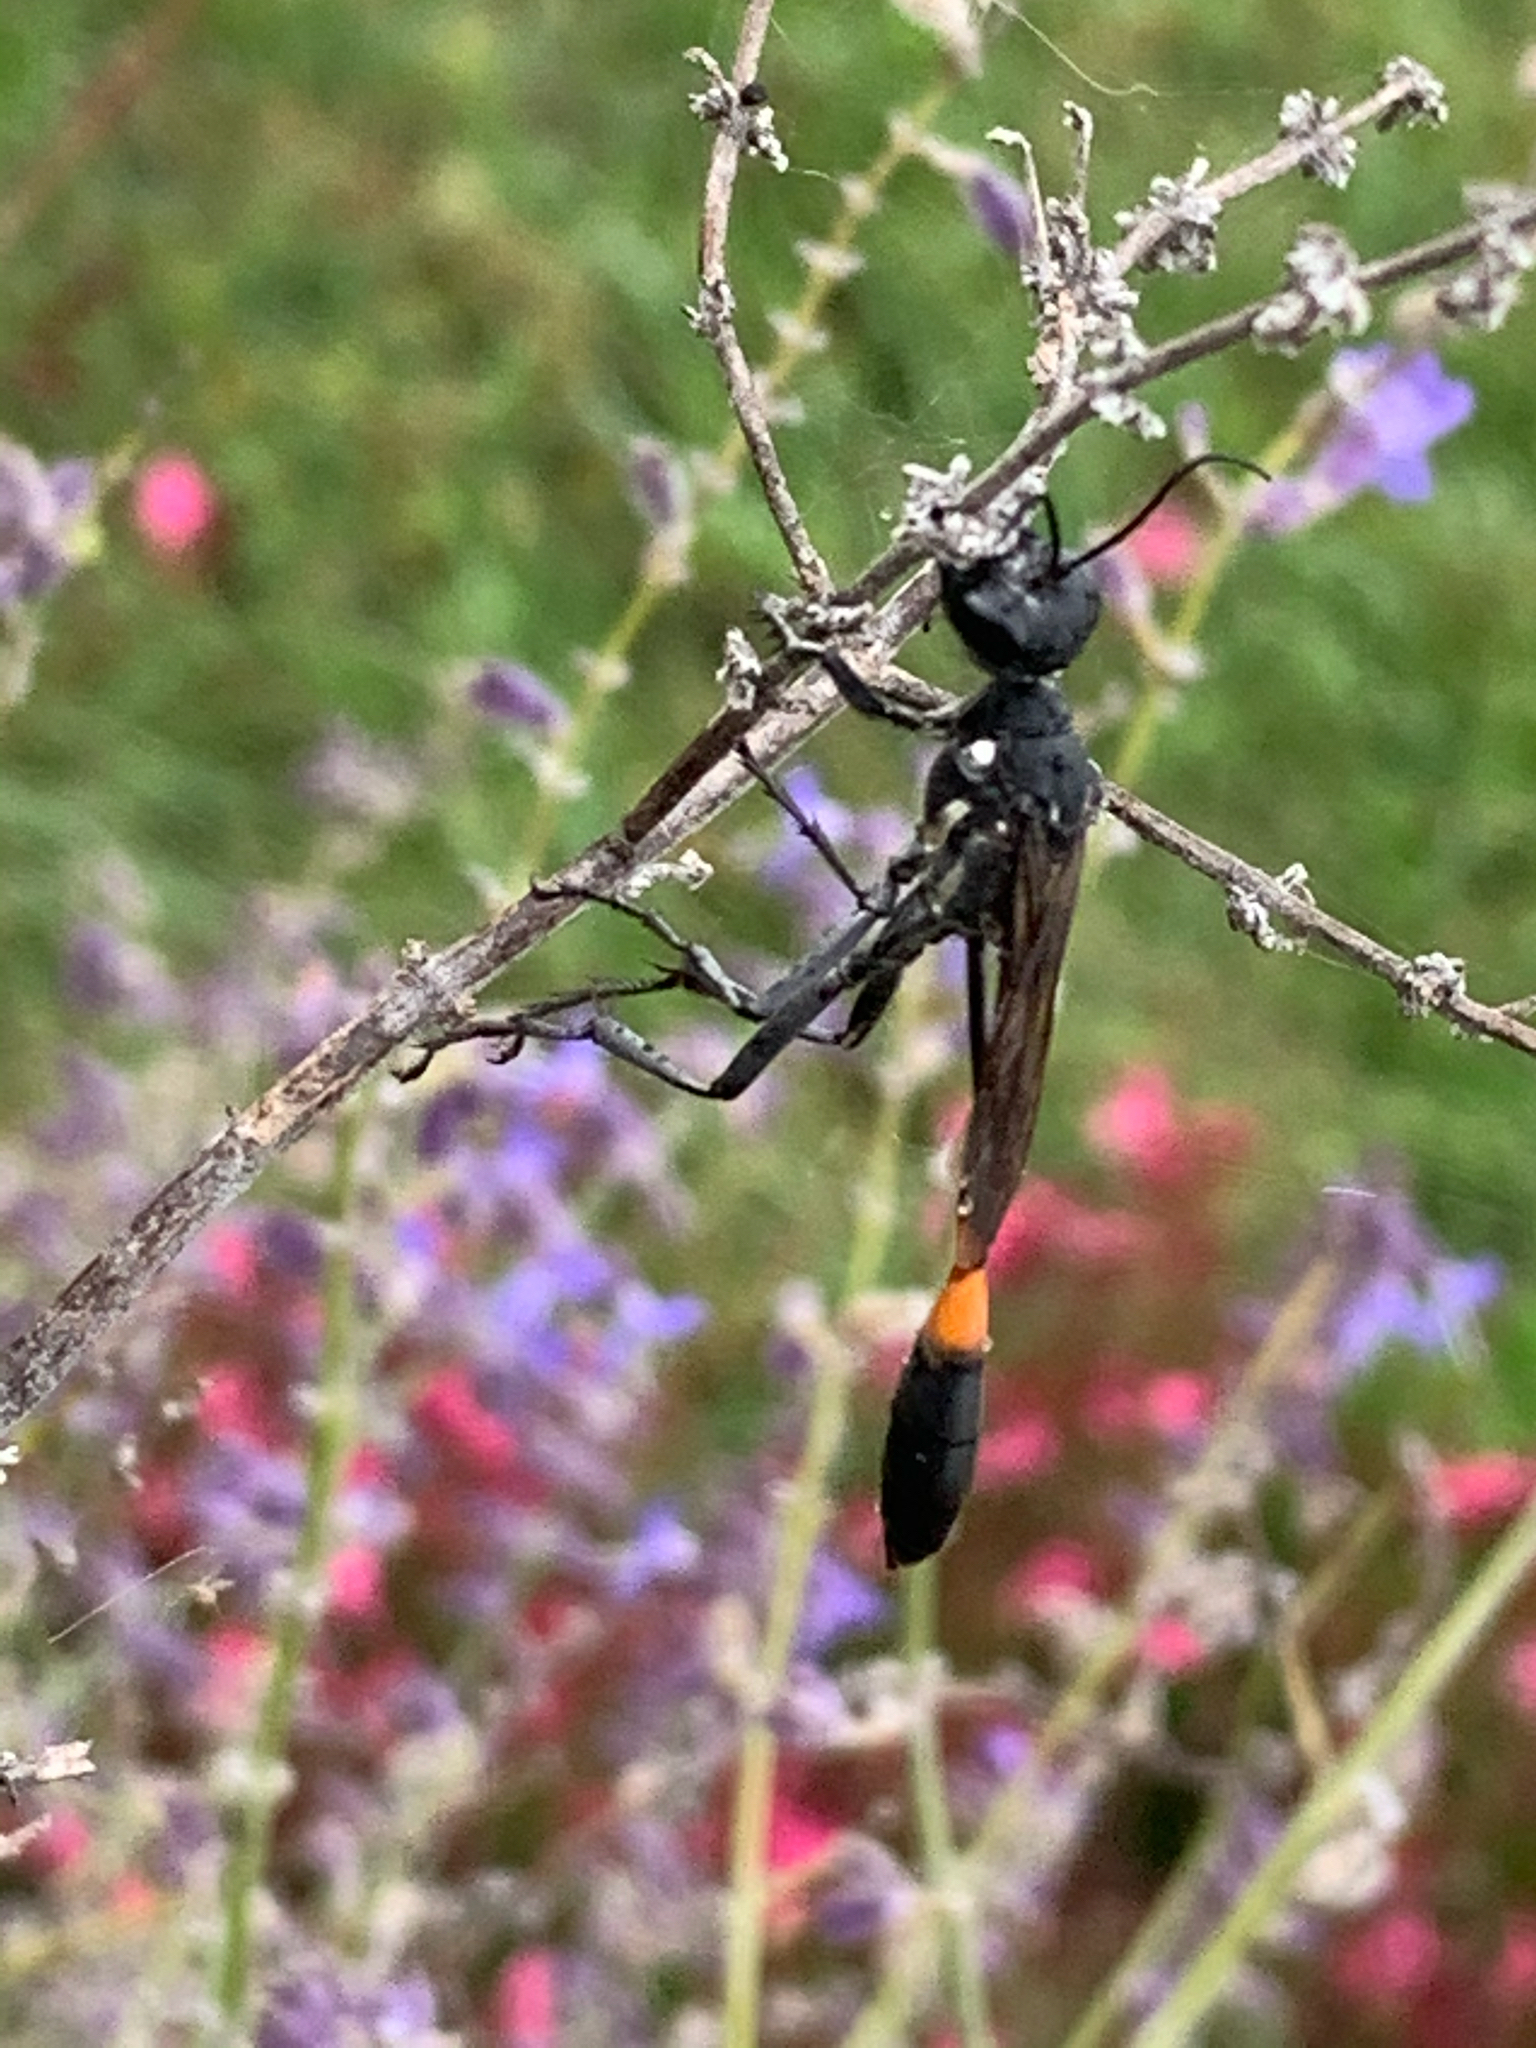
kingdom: Animalia
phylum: Arthropoda
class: Insecta
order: Hymenoptera
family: Sphecidae
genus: Ammophila
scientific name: Ammophila procera
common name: Common thread-waisted wasp
